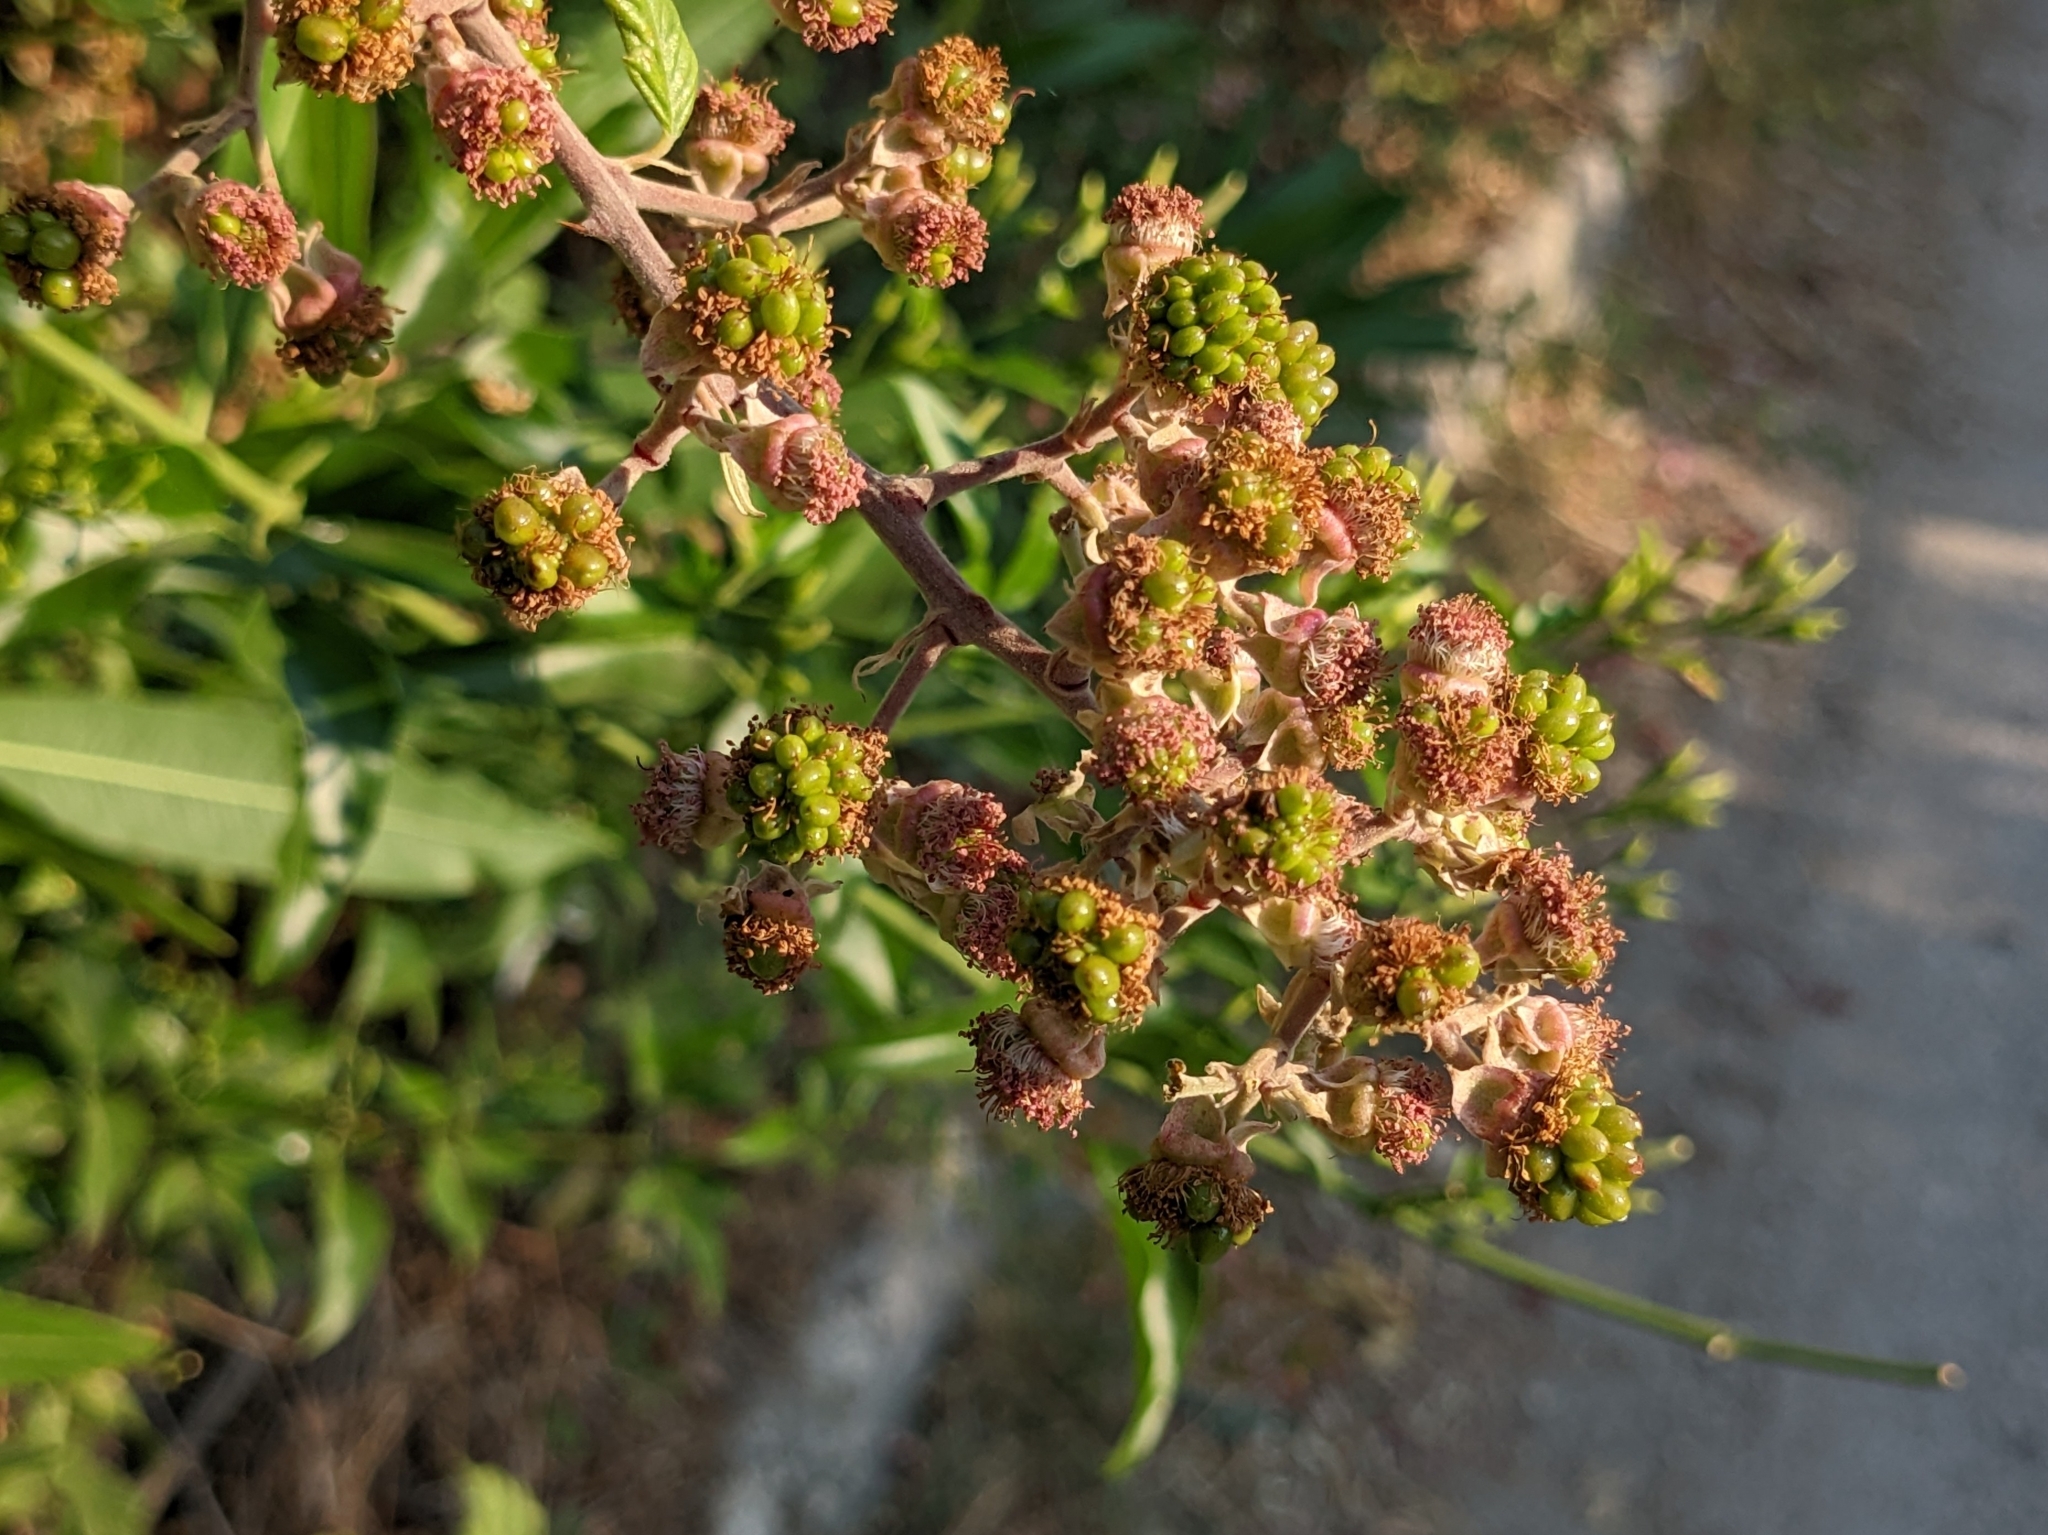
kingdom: Plantae
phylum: Tracheophyta
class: Magnoliopsida
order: Rosales
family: Rosaceae
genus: Rubus
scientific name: Rubus sanctus
